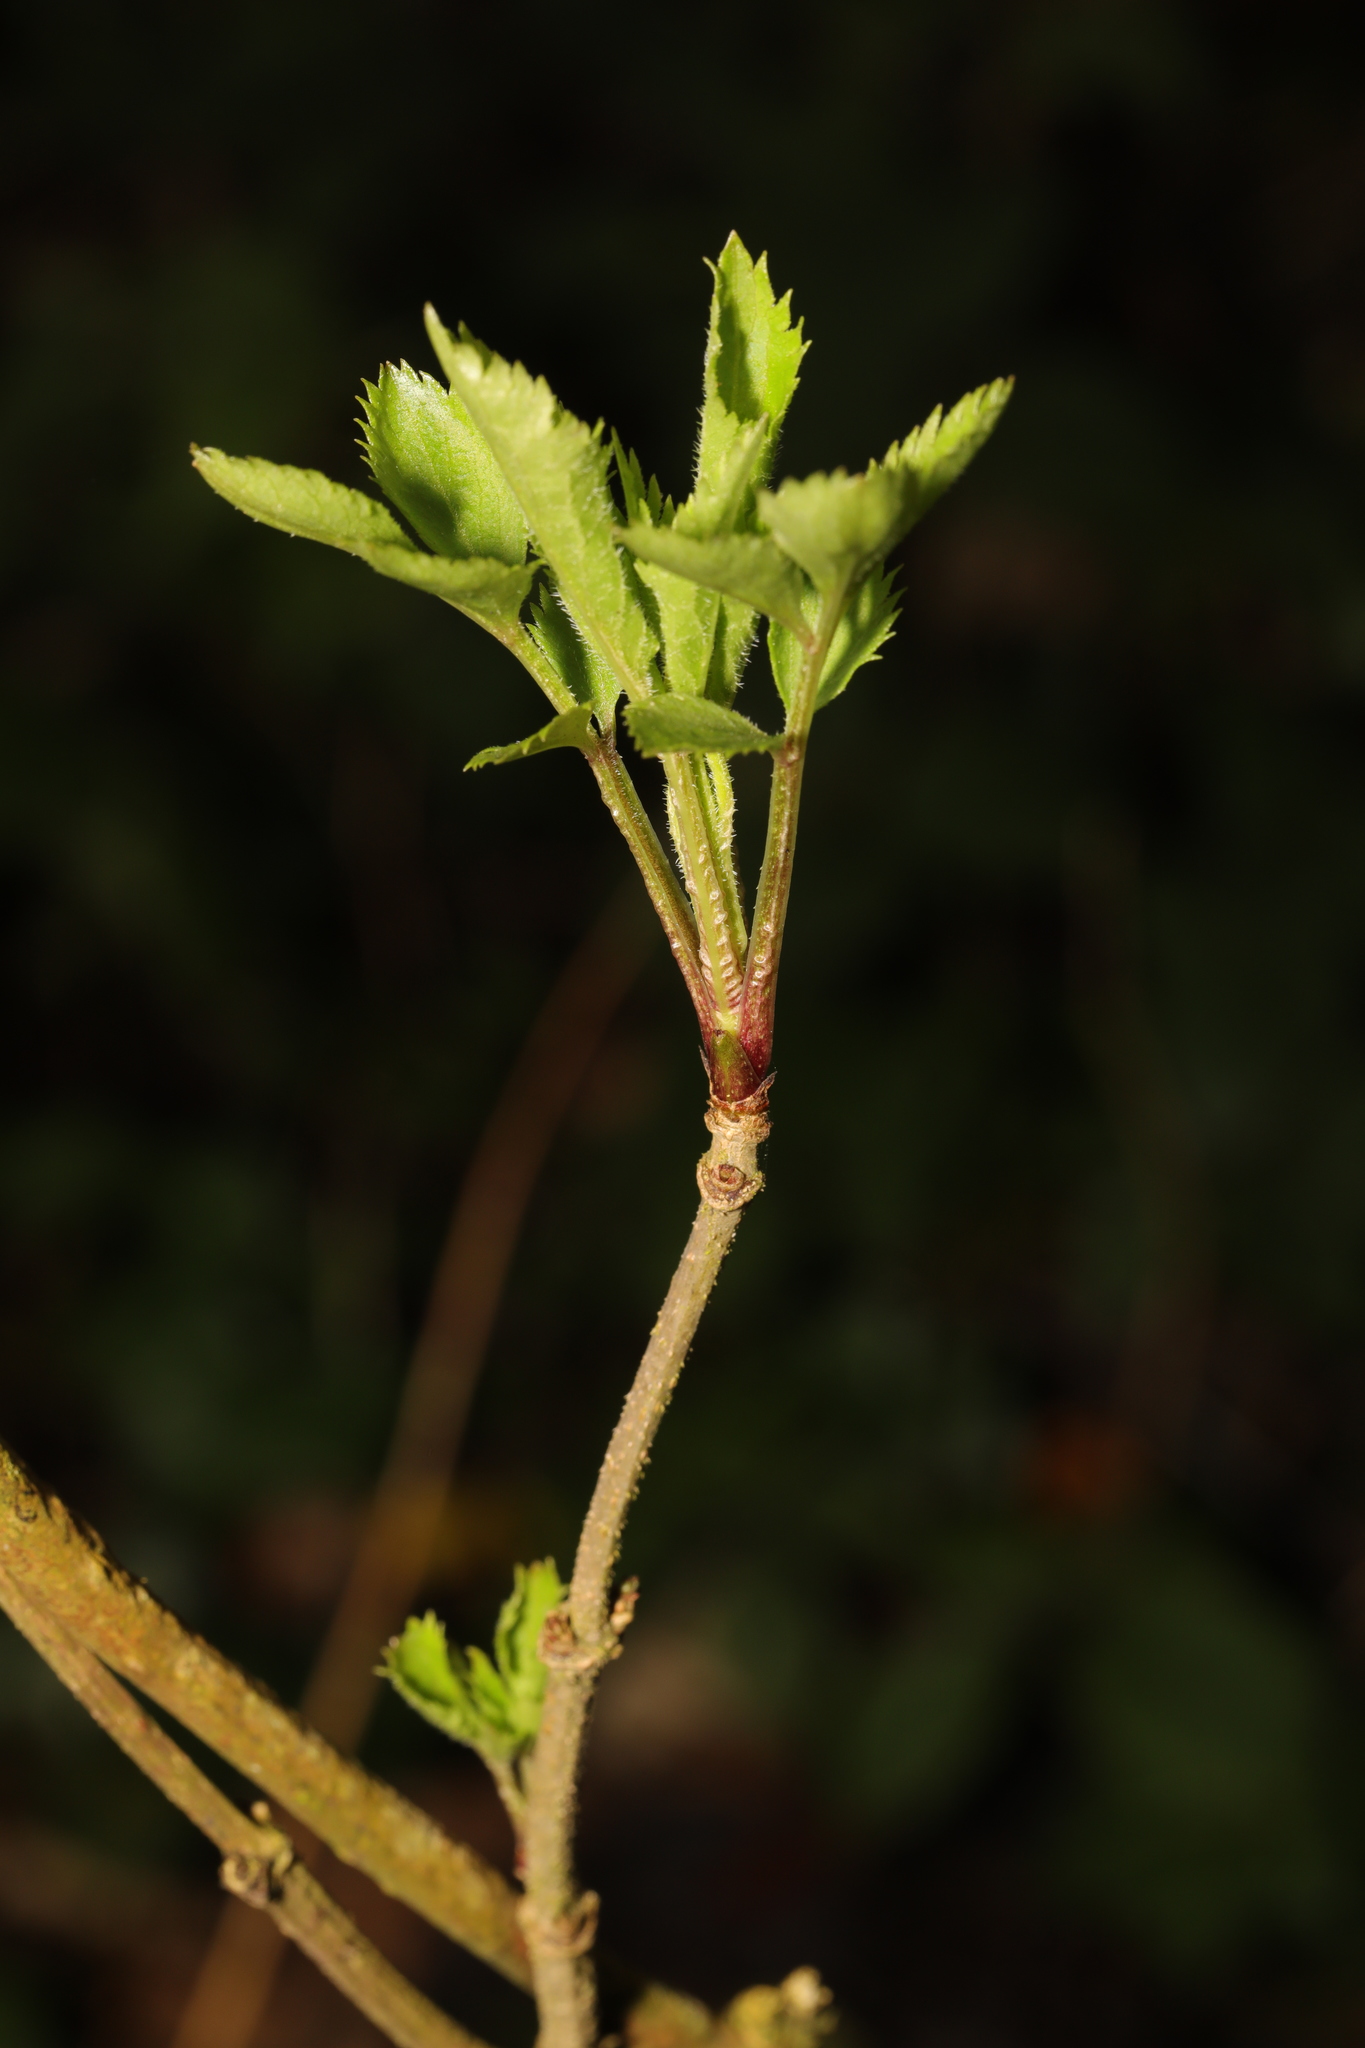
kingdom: Plantae
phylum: Tracheophyta
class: Magnoliopsida
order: Dipsacales
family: Viburnaceae
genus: Sambucus
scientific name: Sambucus nigra
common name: Elder
